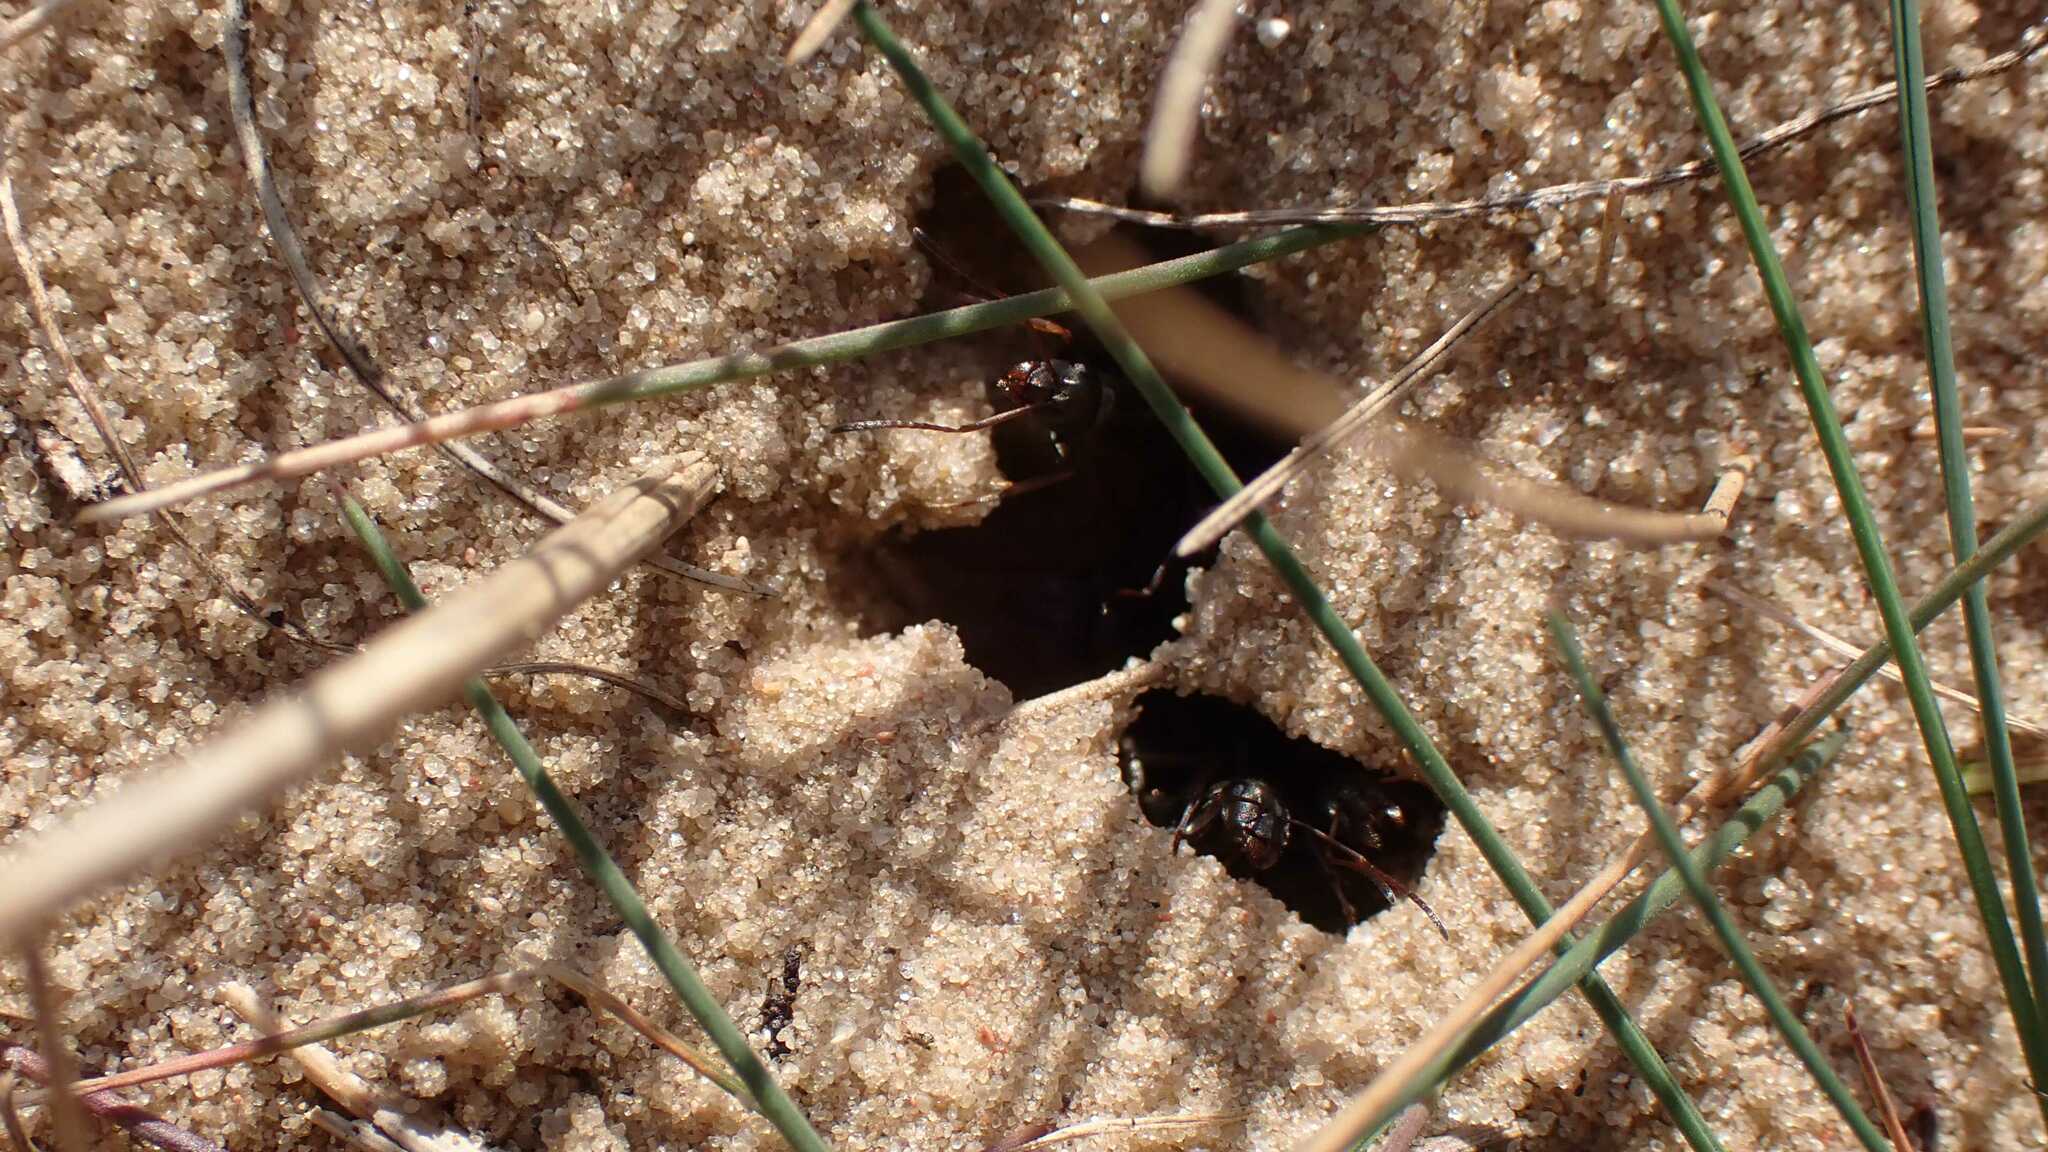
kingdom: Animalia
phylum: Arthropoda
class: Insecta
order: Hymenoptera
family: Formicidae
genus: Formica
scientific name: Formica cinerea
